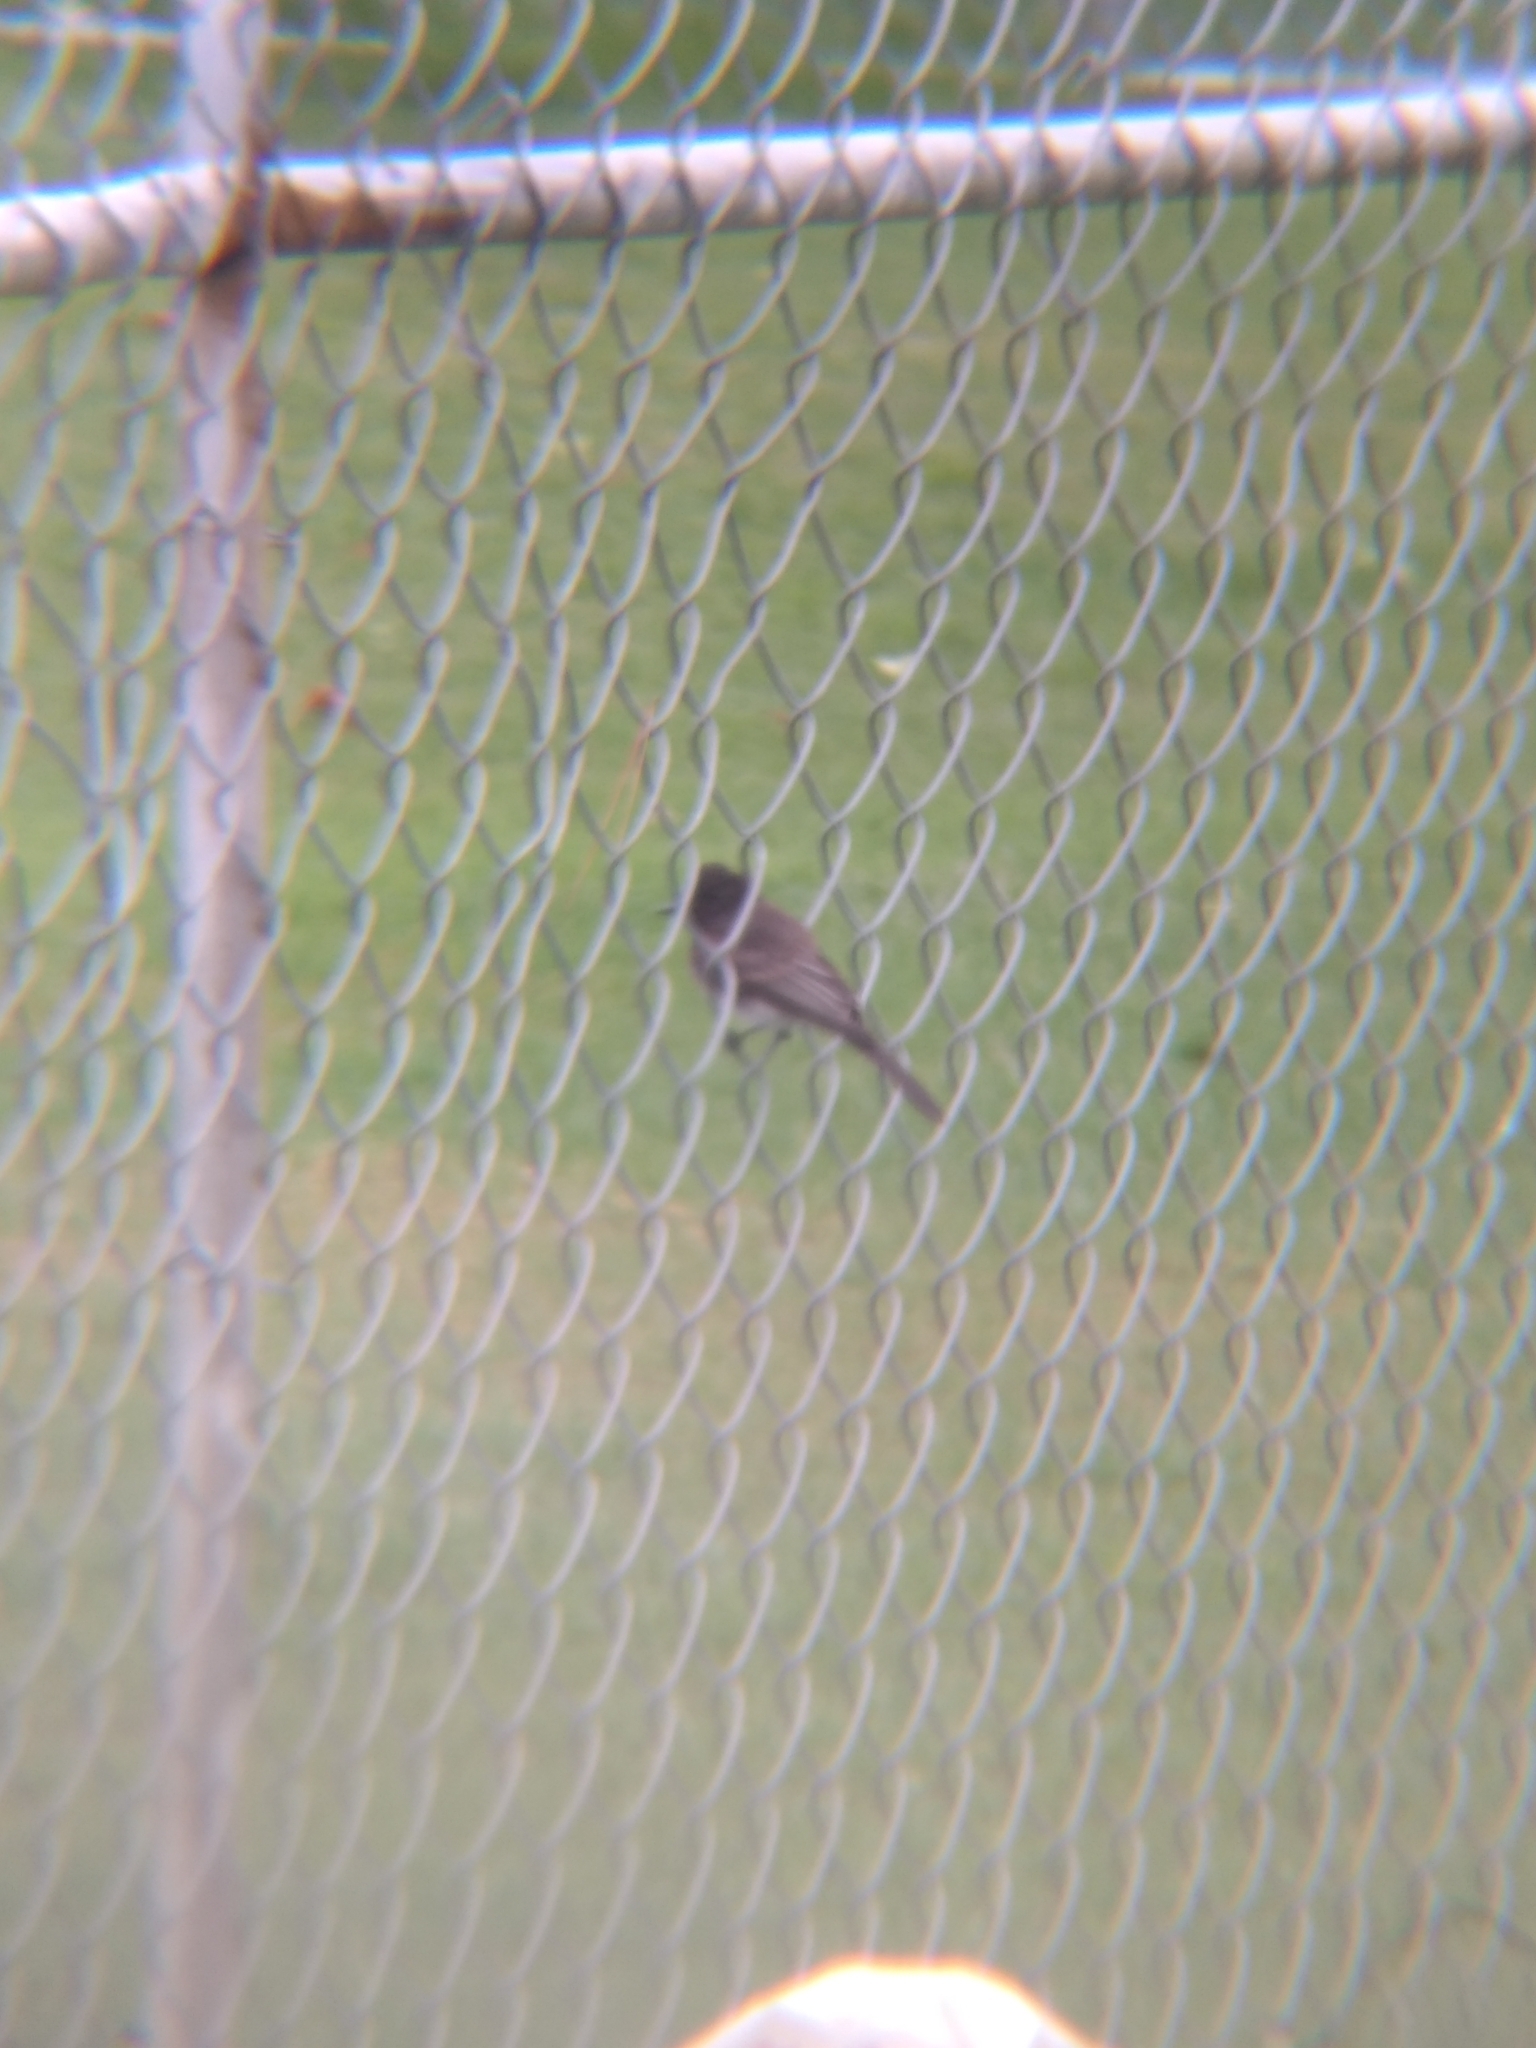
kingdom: Animalia
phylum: Chordata
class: Aves
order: Passeriformes
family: Tyrannidae
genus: Sayornis
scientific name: Sayornis nigricans
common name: Black phoebe
